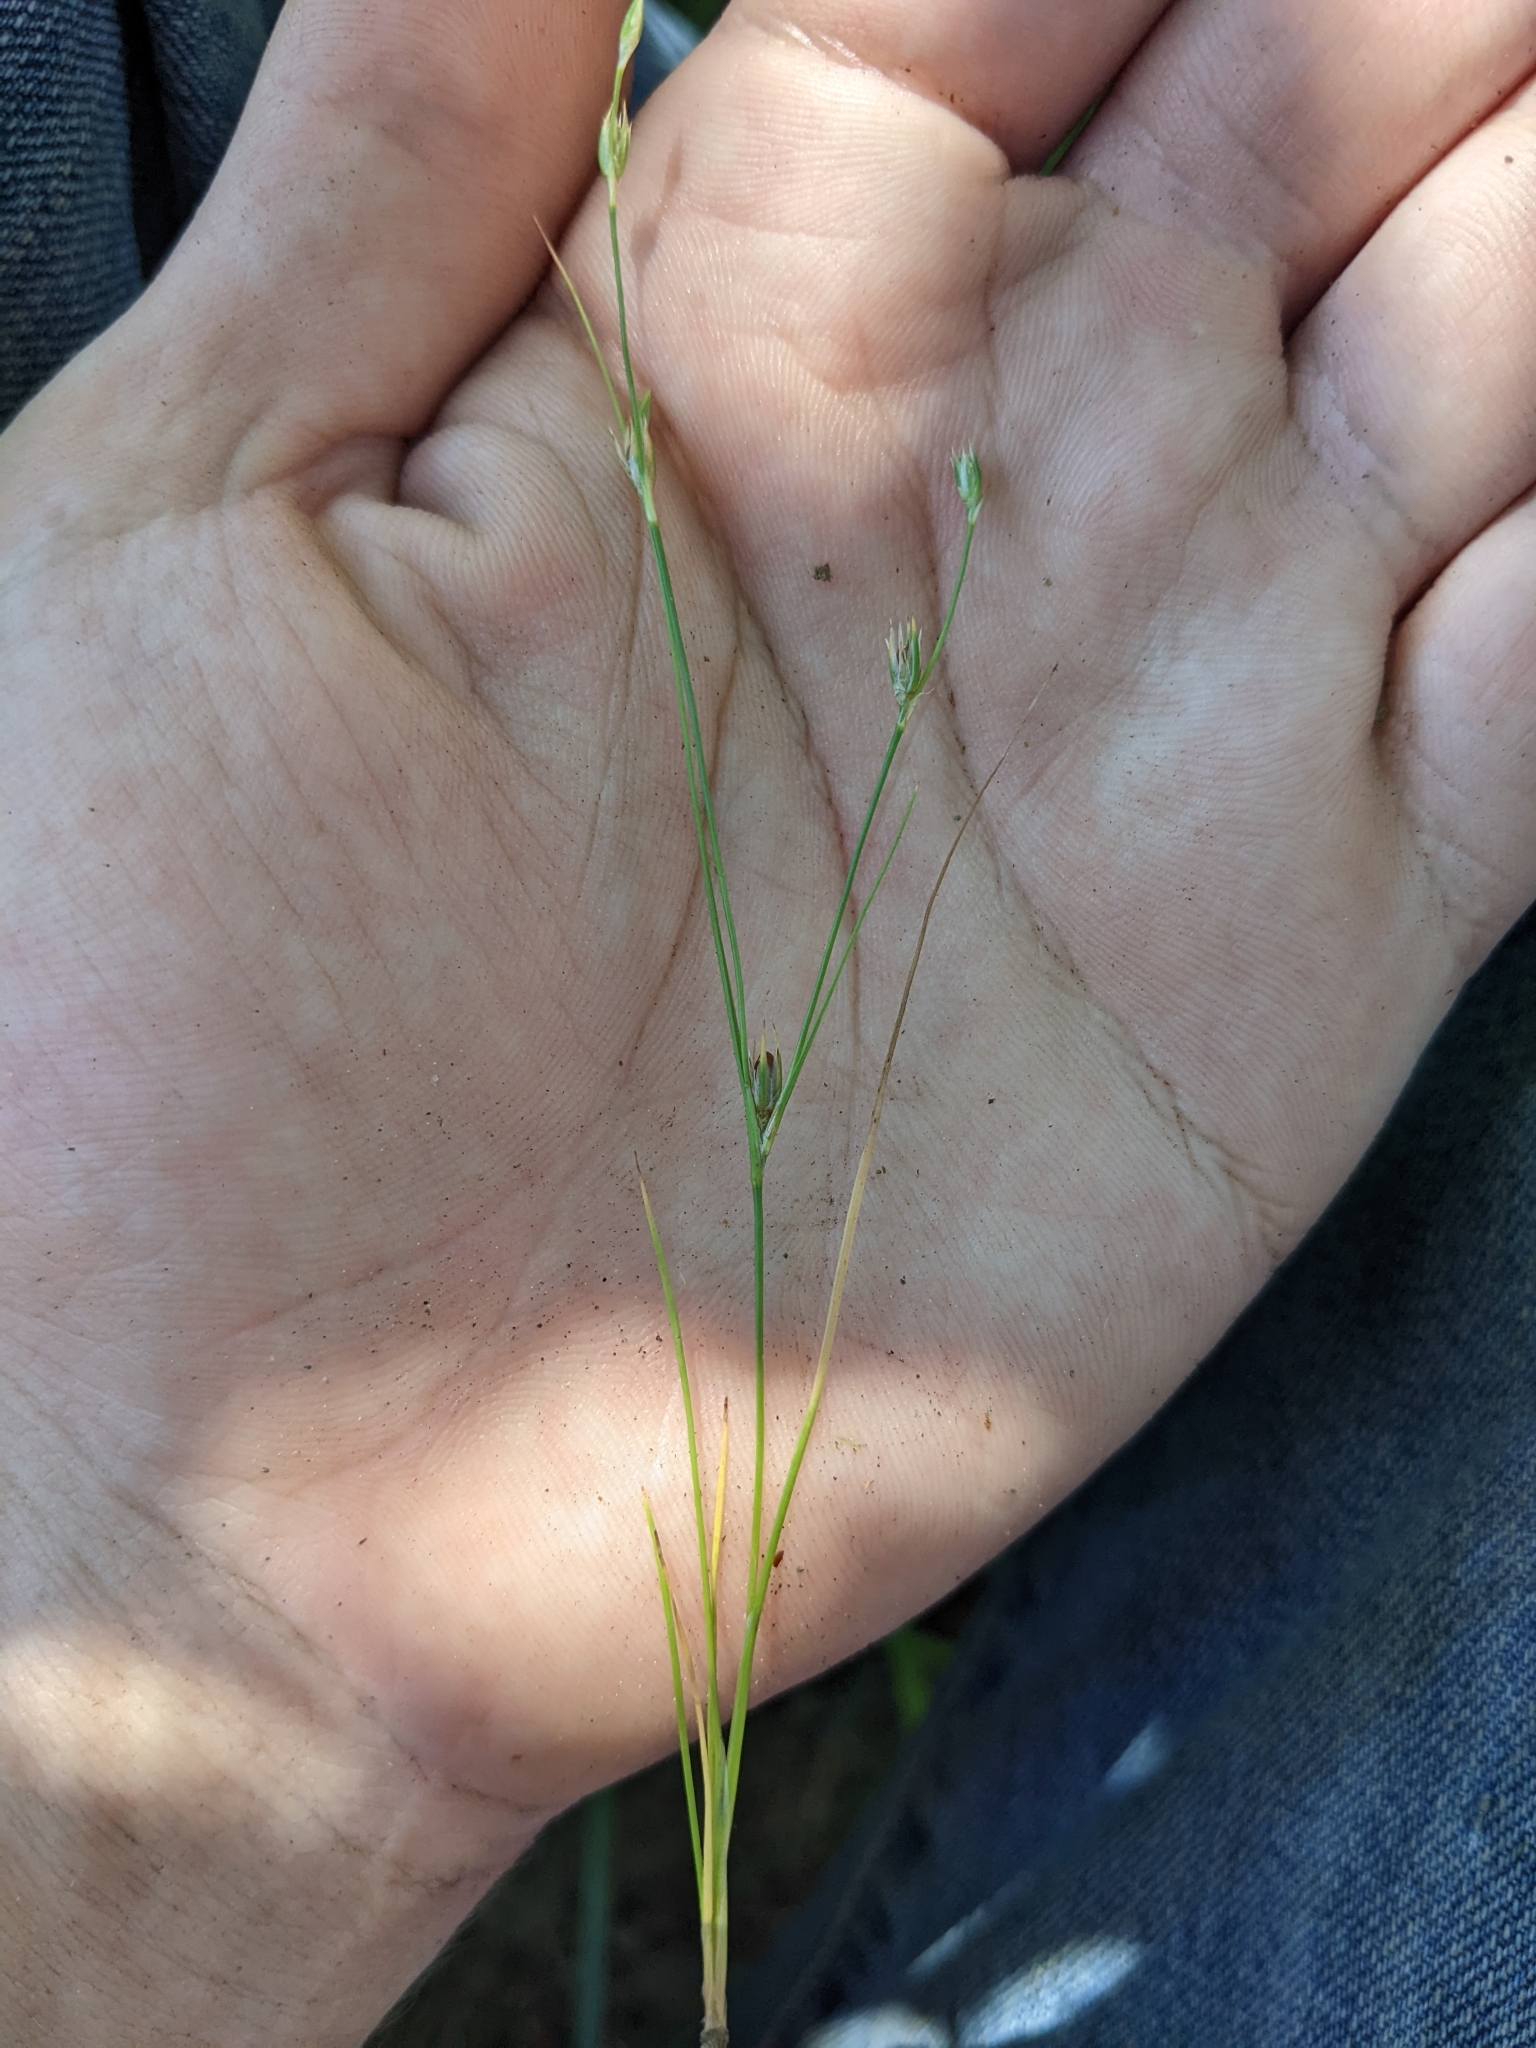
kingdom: Plantae
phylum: Tracheophyta
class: Liliopsida
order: Poales
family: Juncaceae
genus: Juncus
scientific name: Juncus bufonius
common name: Toad rush
